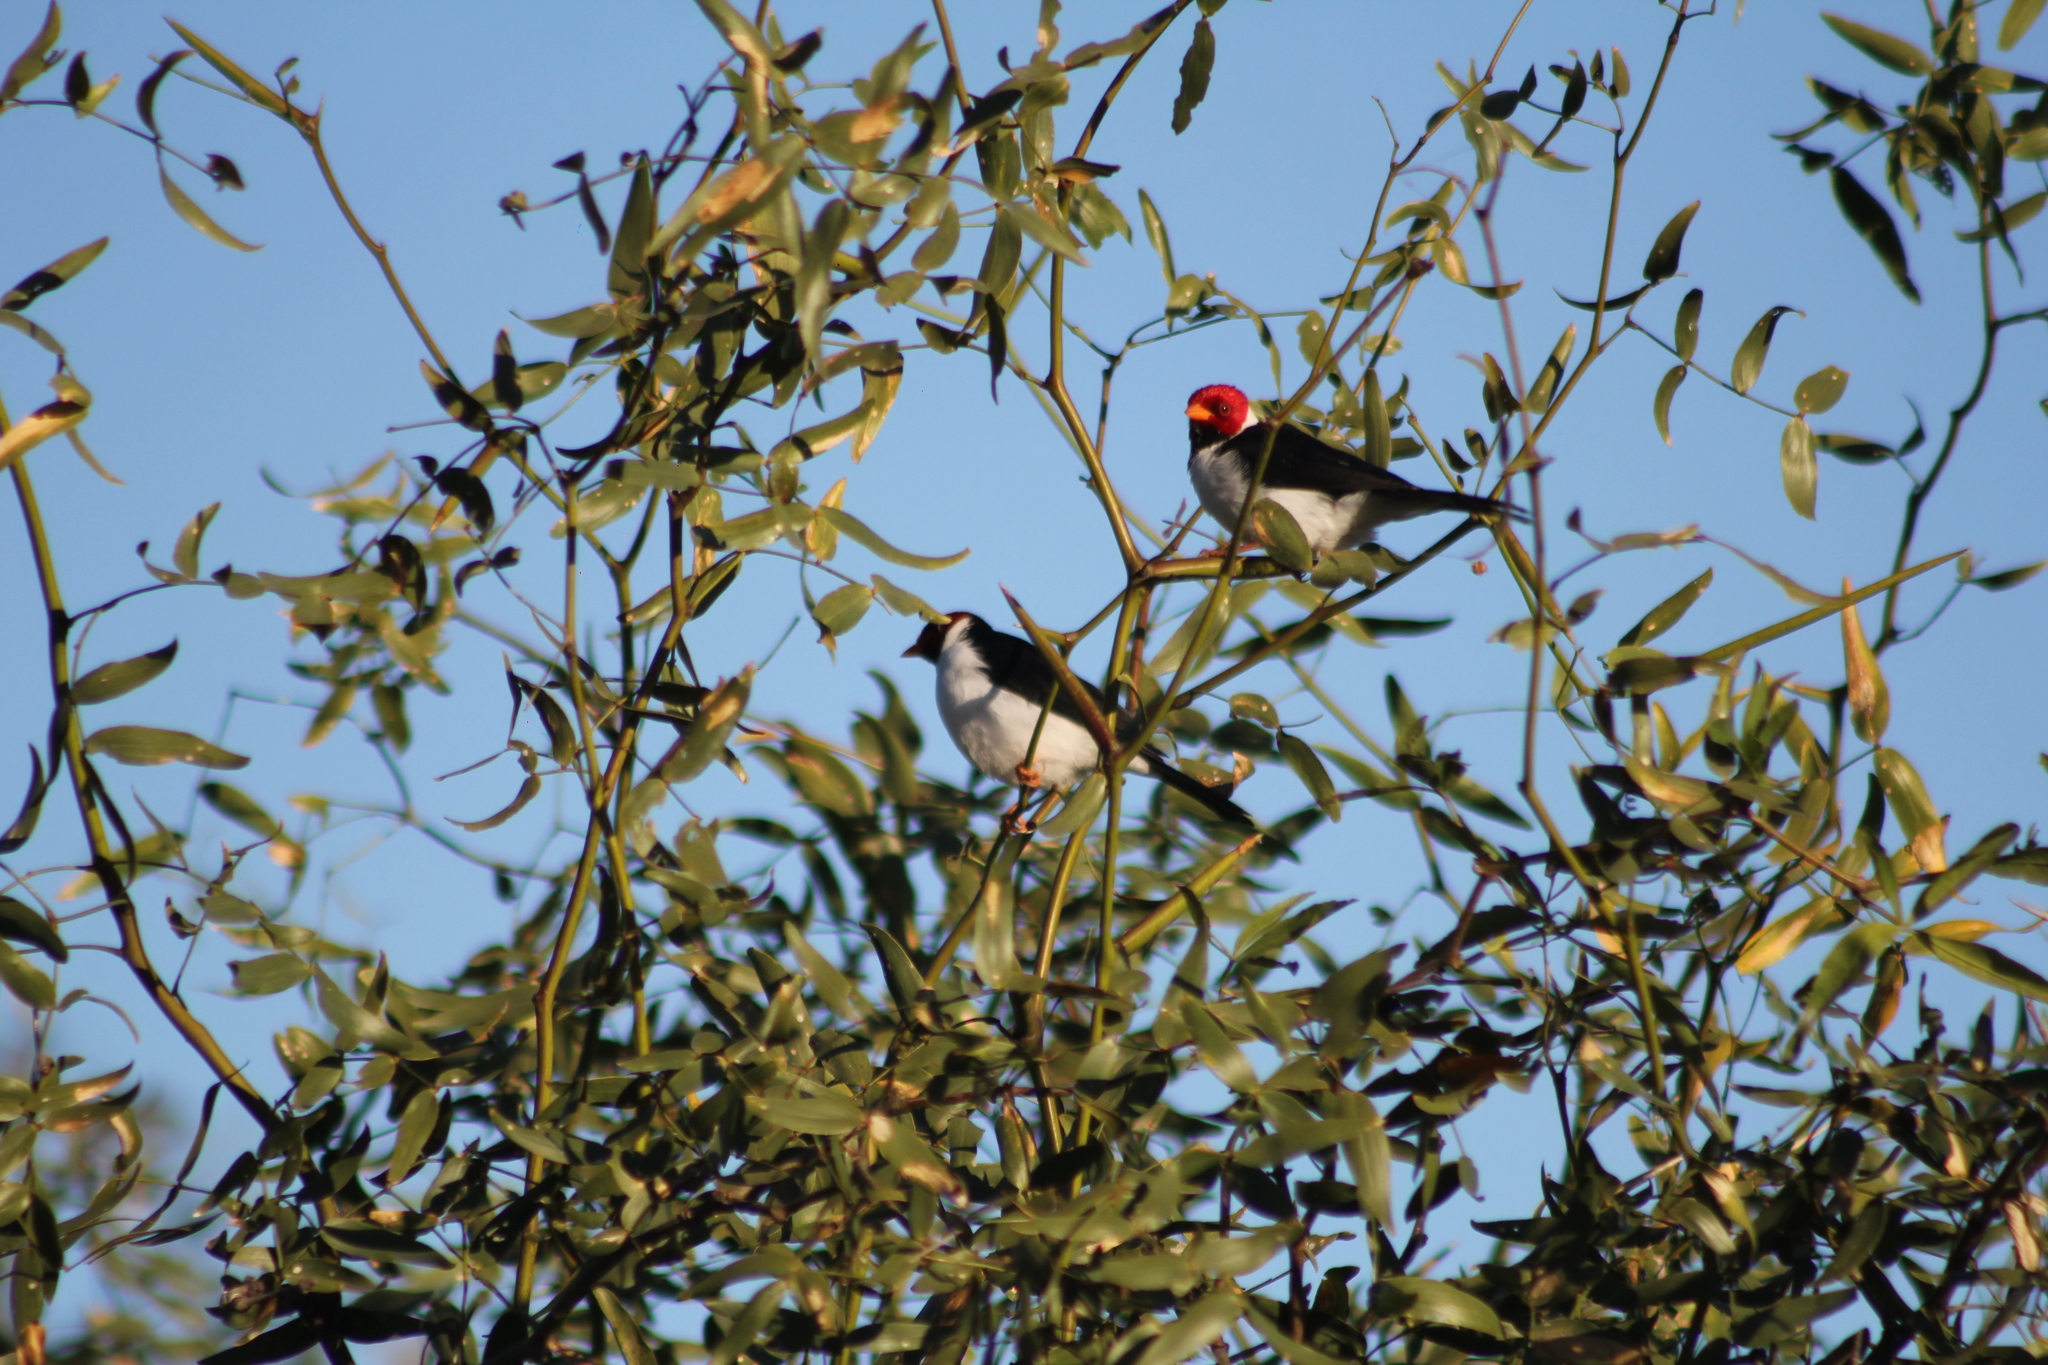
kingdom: Animalia
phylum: Chordata
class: Aves
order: Passeriformes
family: Thraupidae
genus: Paroaria
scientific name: Paroaria capitata
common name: Yellow-billed cardinal
